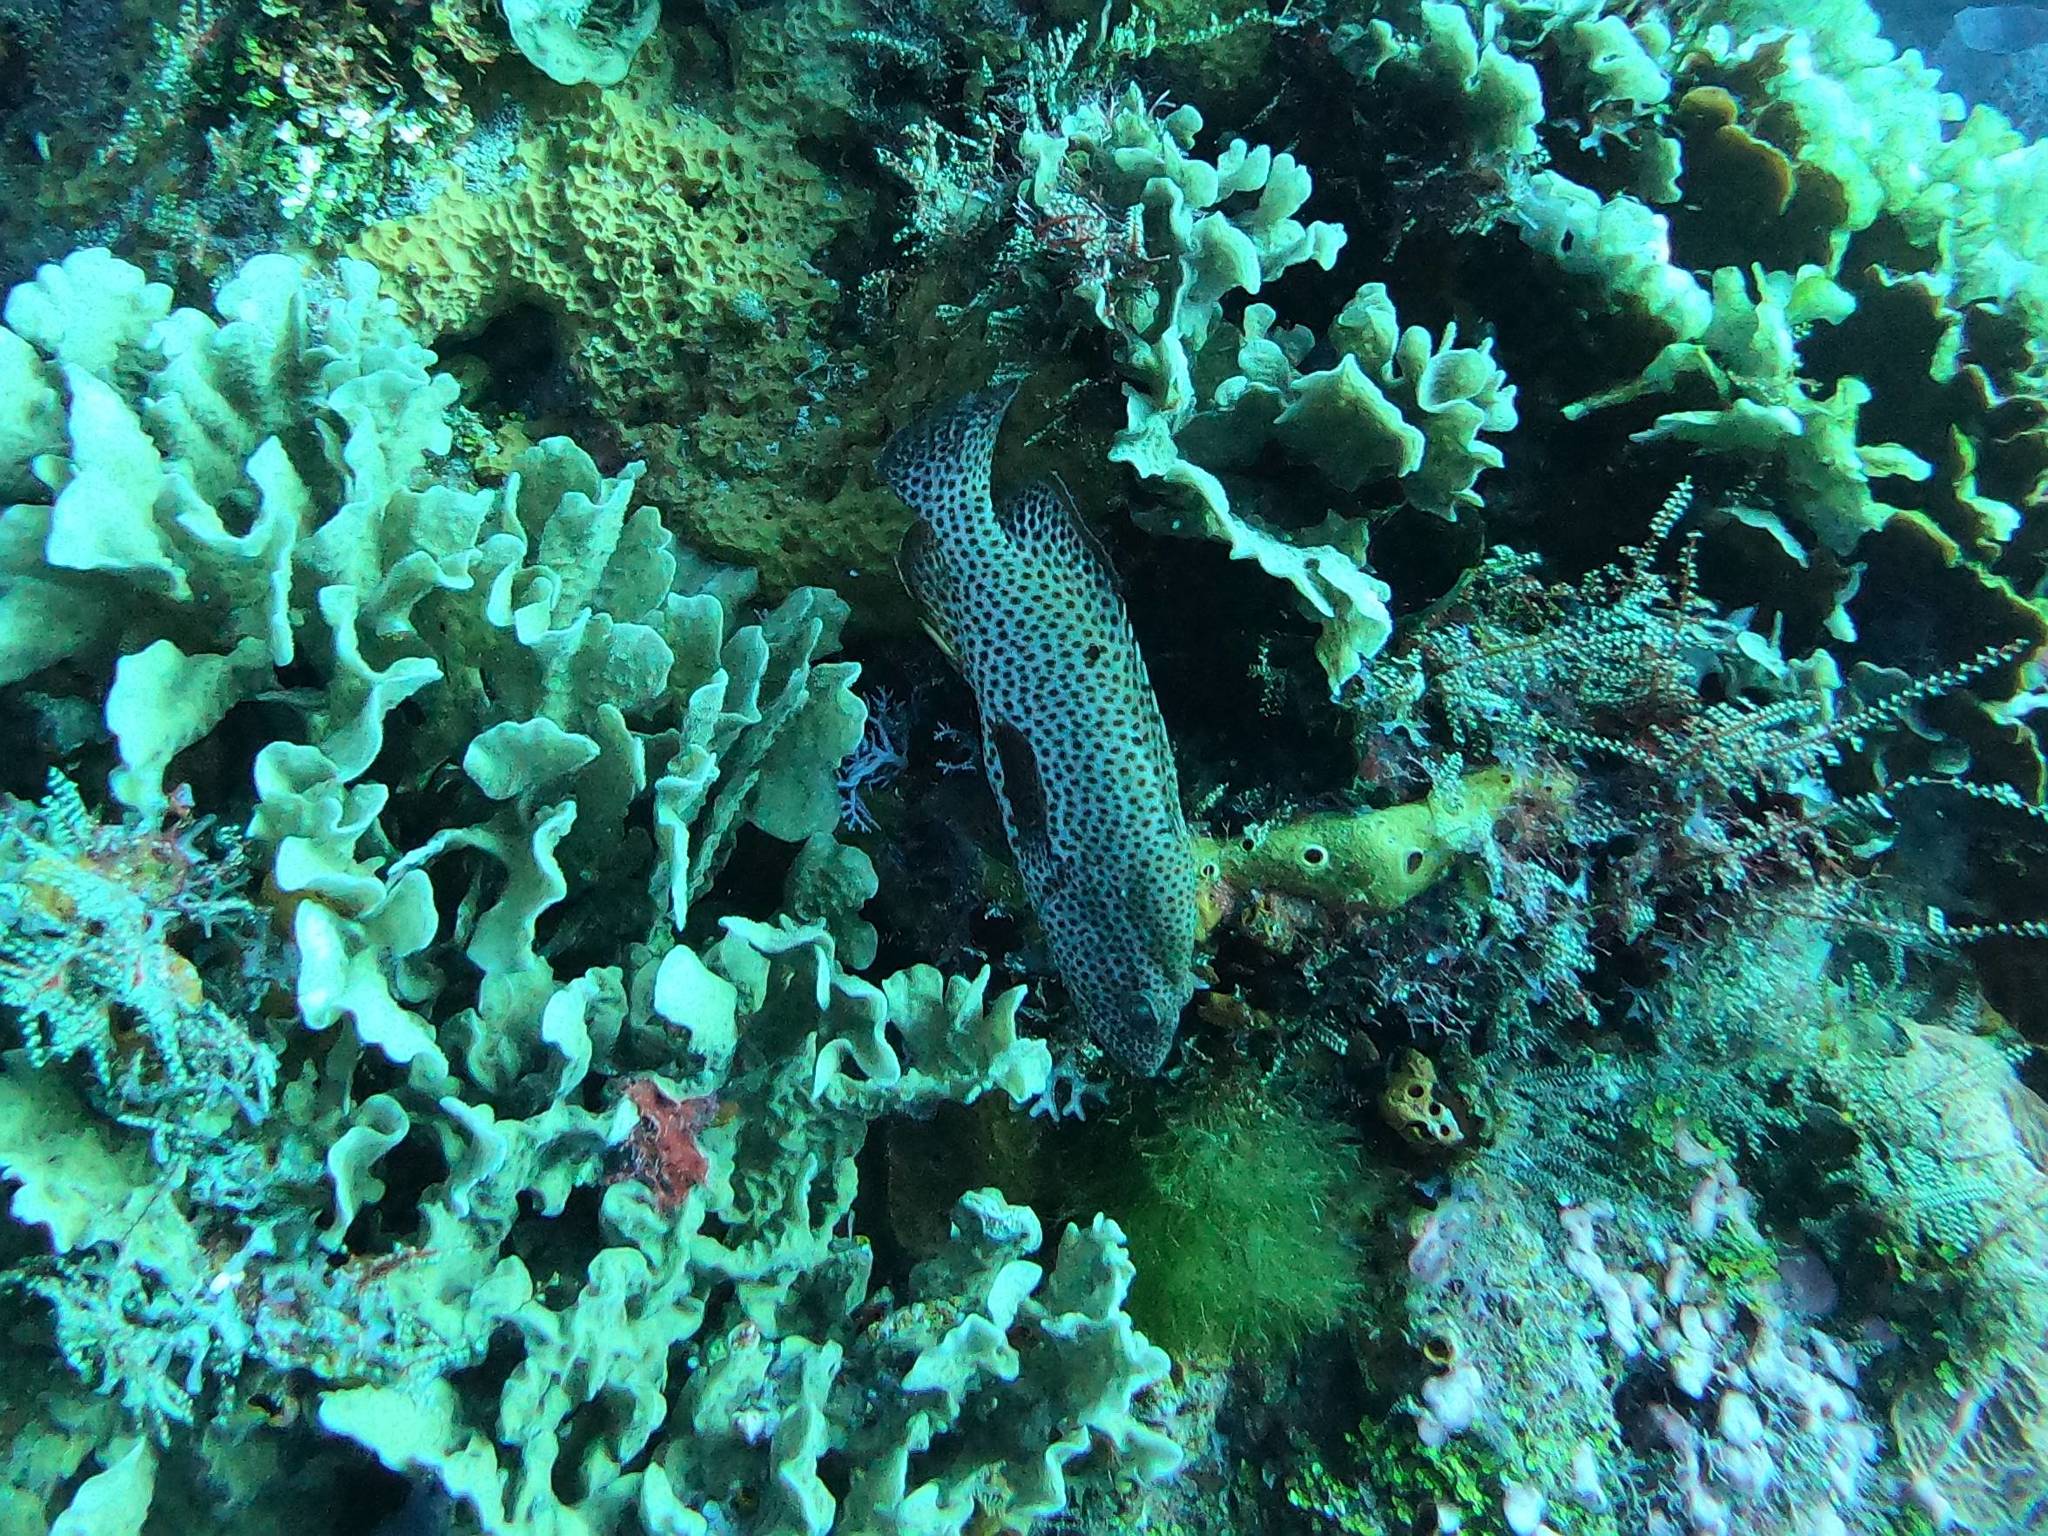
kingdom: Animalia
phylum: Chordata
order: Perciformes
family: Serranidae
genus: Cephalopholis
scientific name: Cephalopholis cruentata
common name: Graysby
